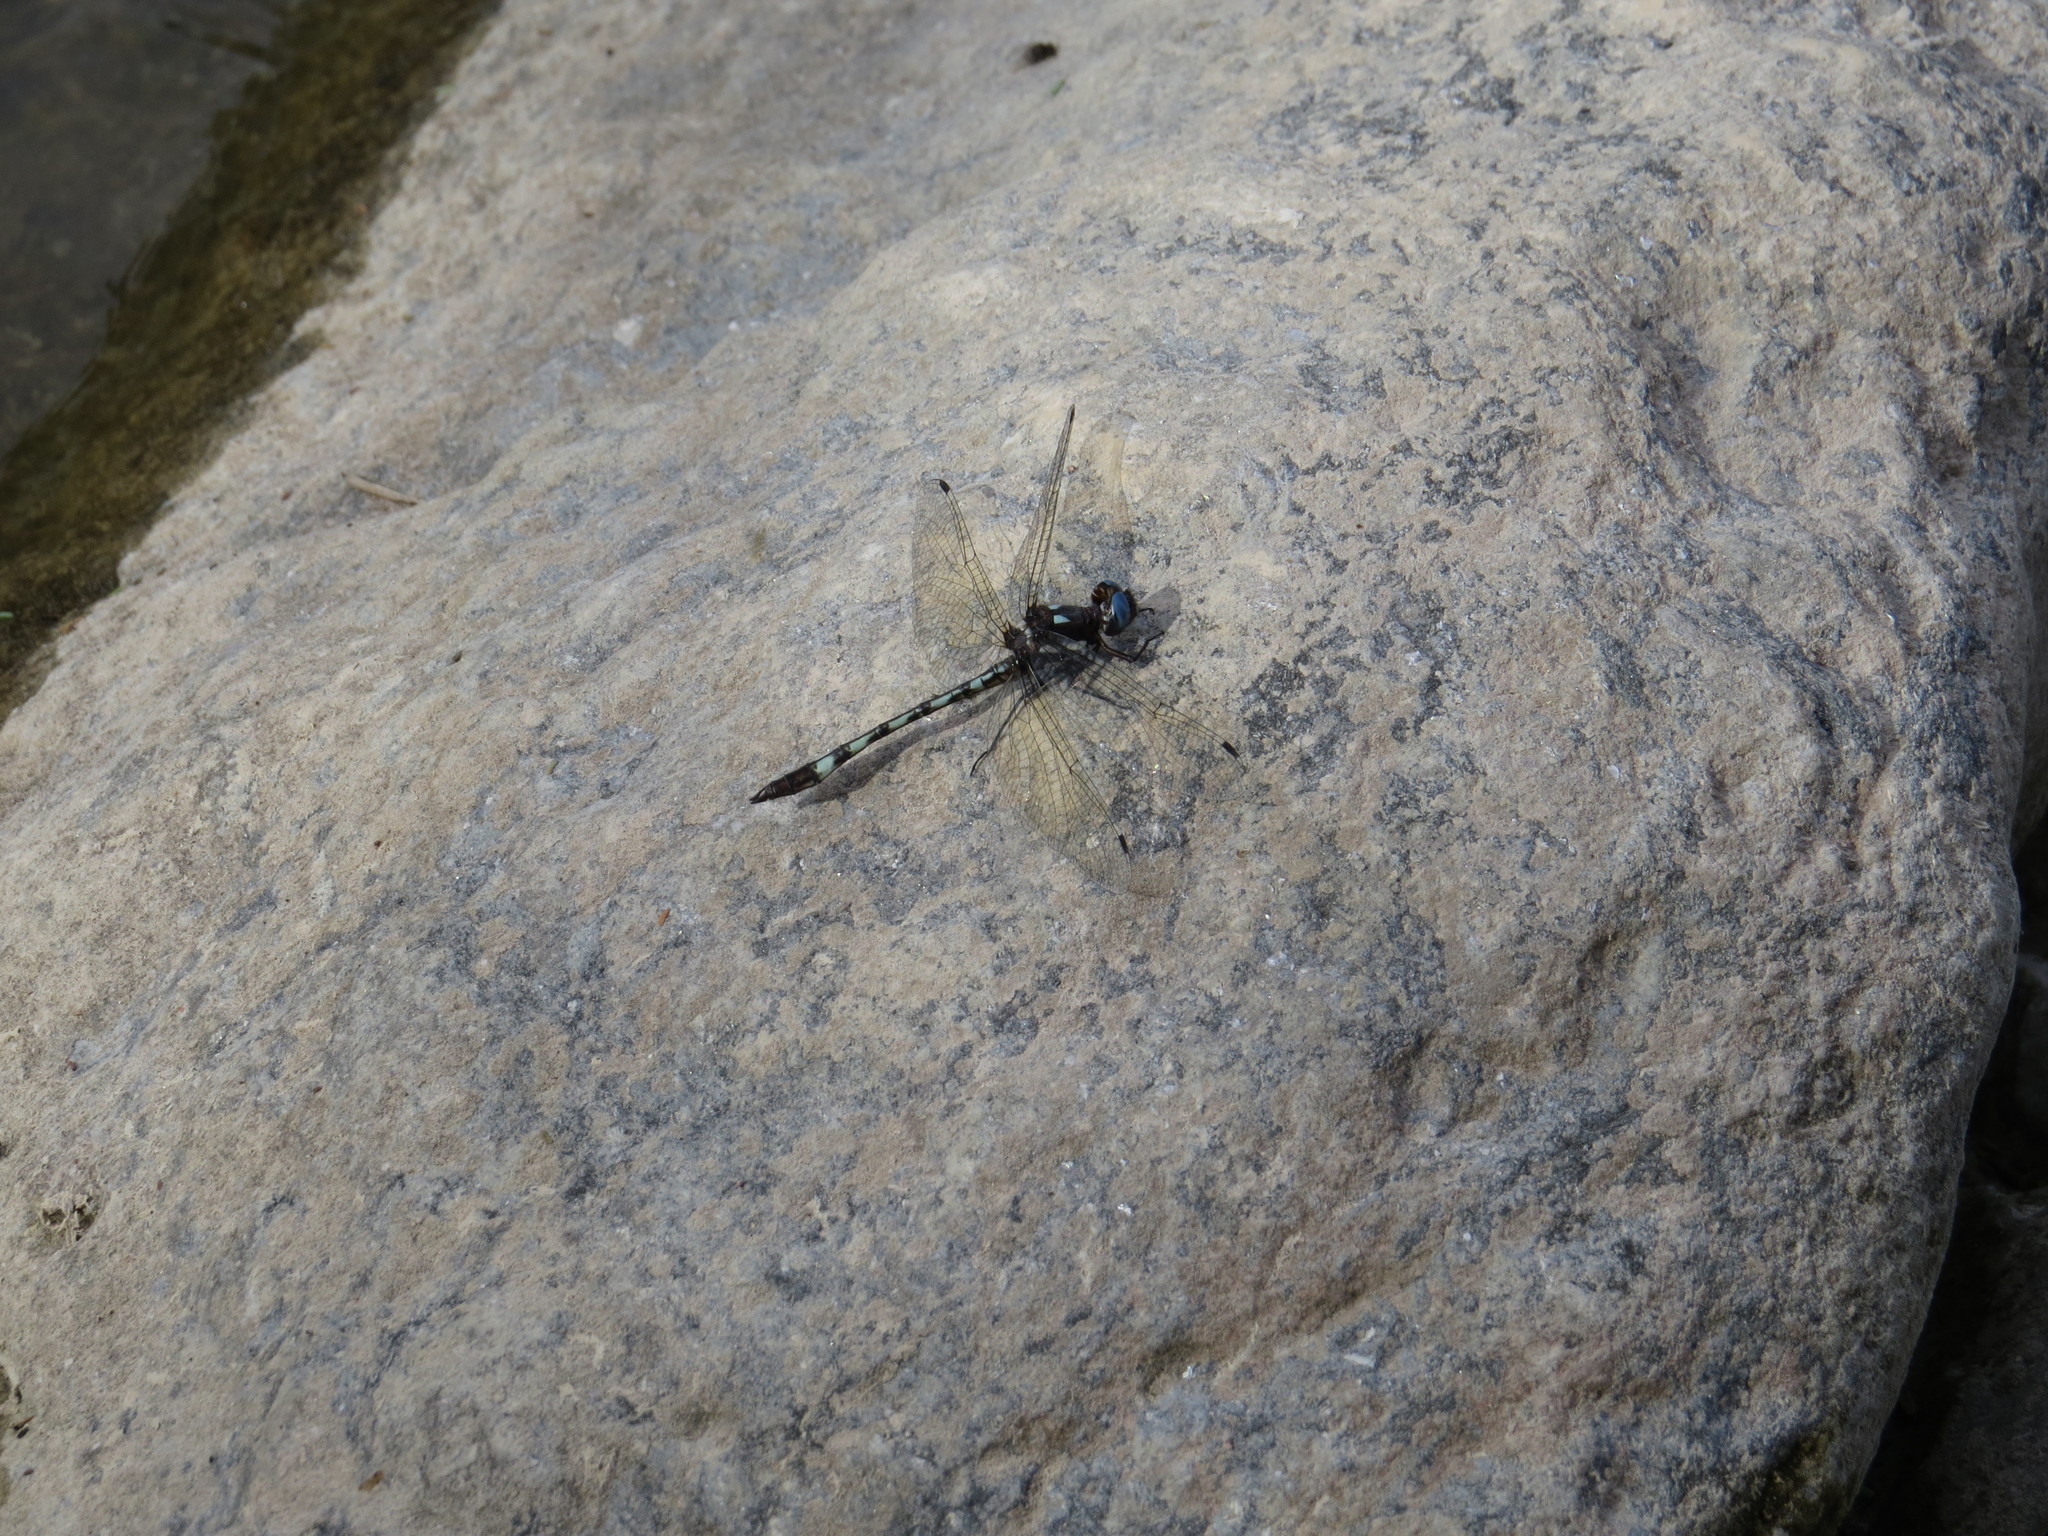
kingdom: Animalia
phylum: Arthropoda
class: Insecta
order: Odonata
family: Libellulidae
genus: Macrothemis
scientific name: Macrothemis imitans
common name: Ivory-striped sylph
